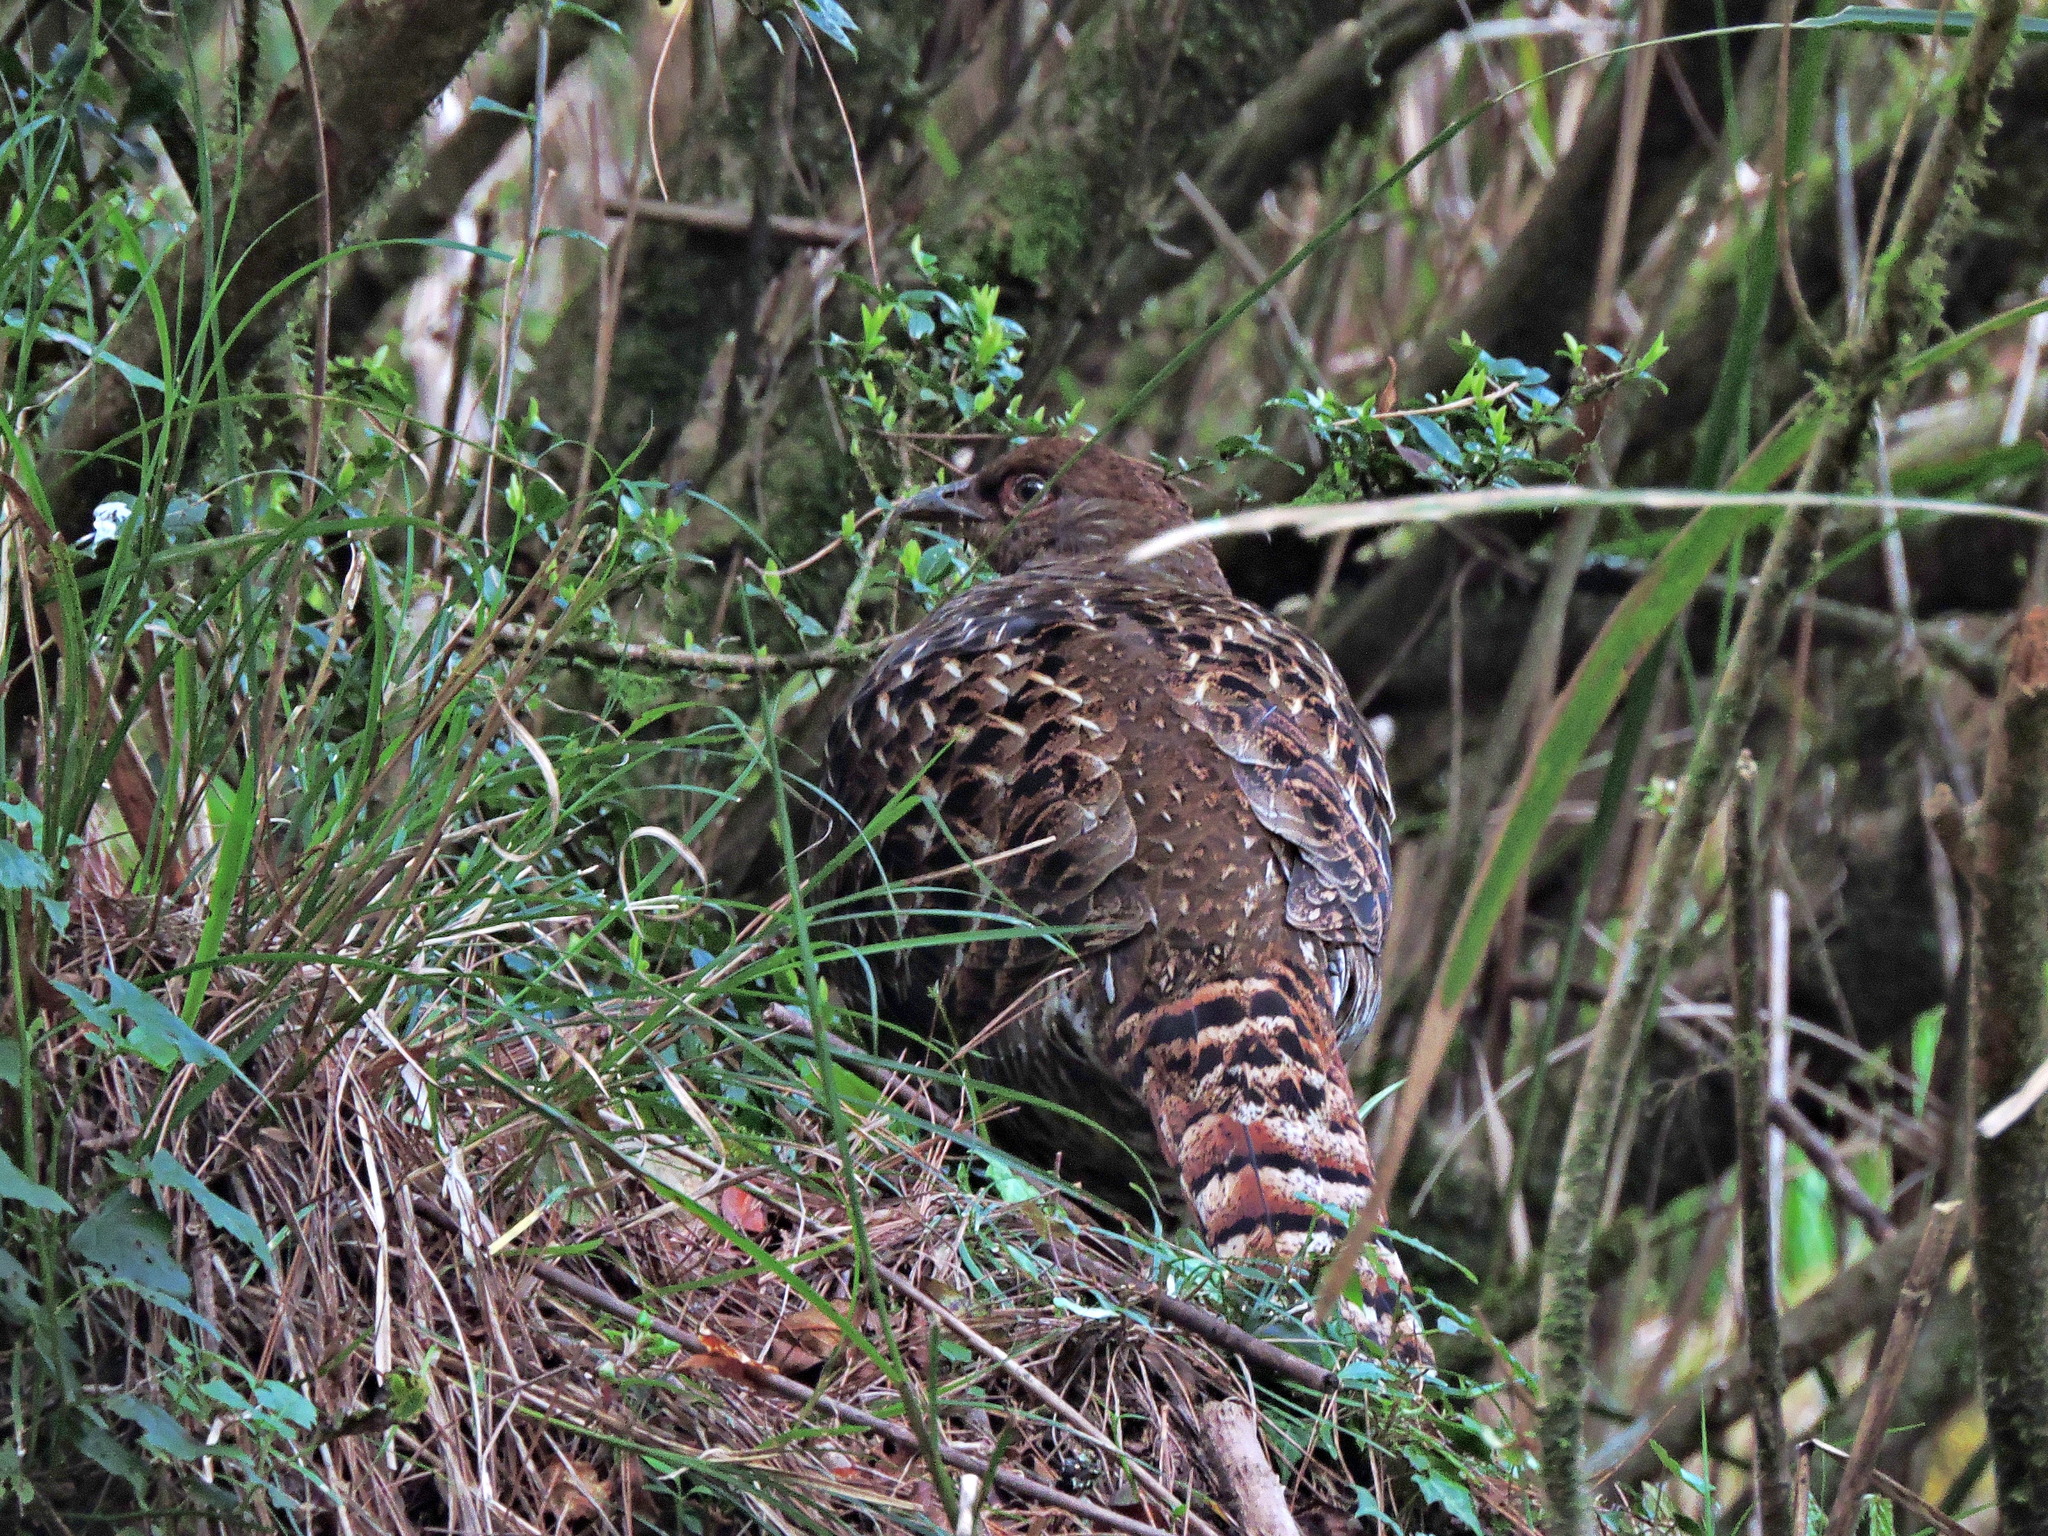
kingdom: Animalia
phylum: Chordata
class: Aves
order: Galliformes
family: Phasianidae
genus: Syrmaticus
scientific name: Syrmaticus mikado
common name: Mikado pheasant
